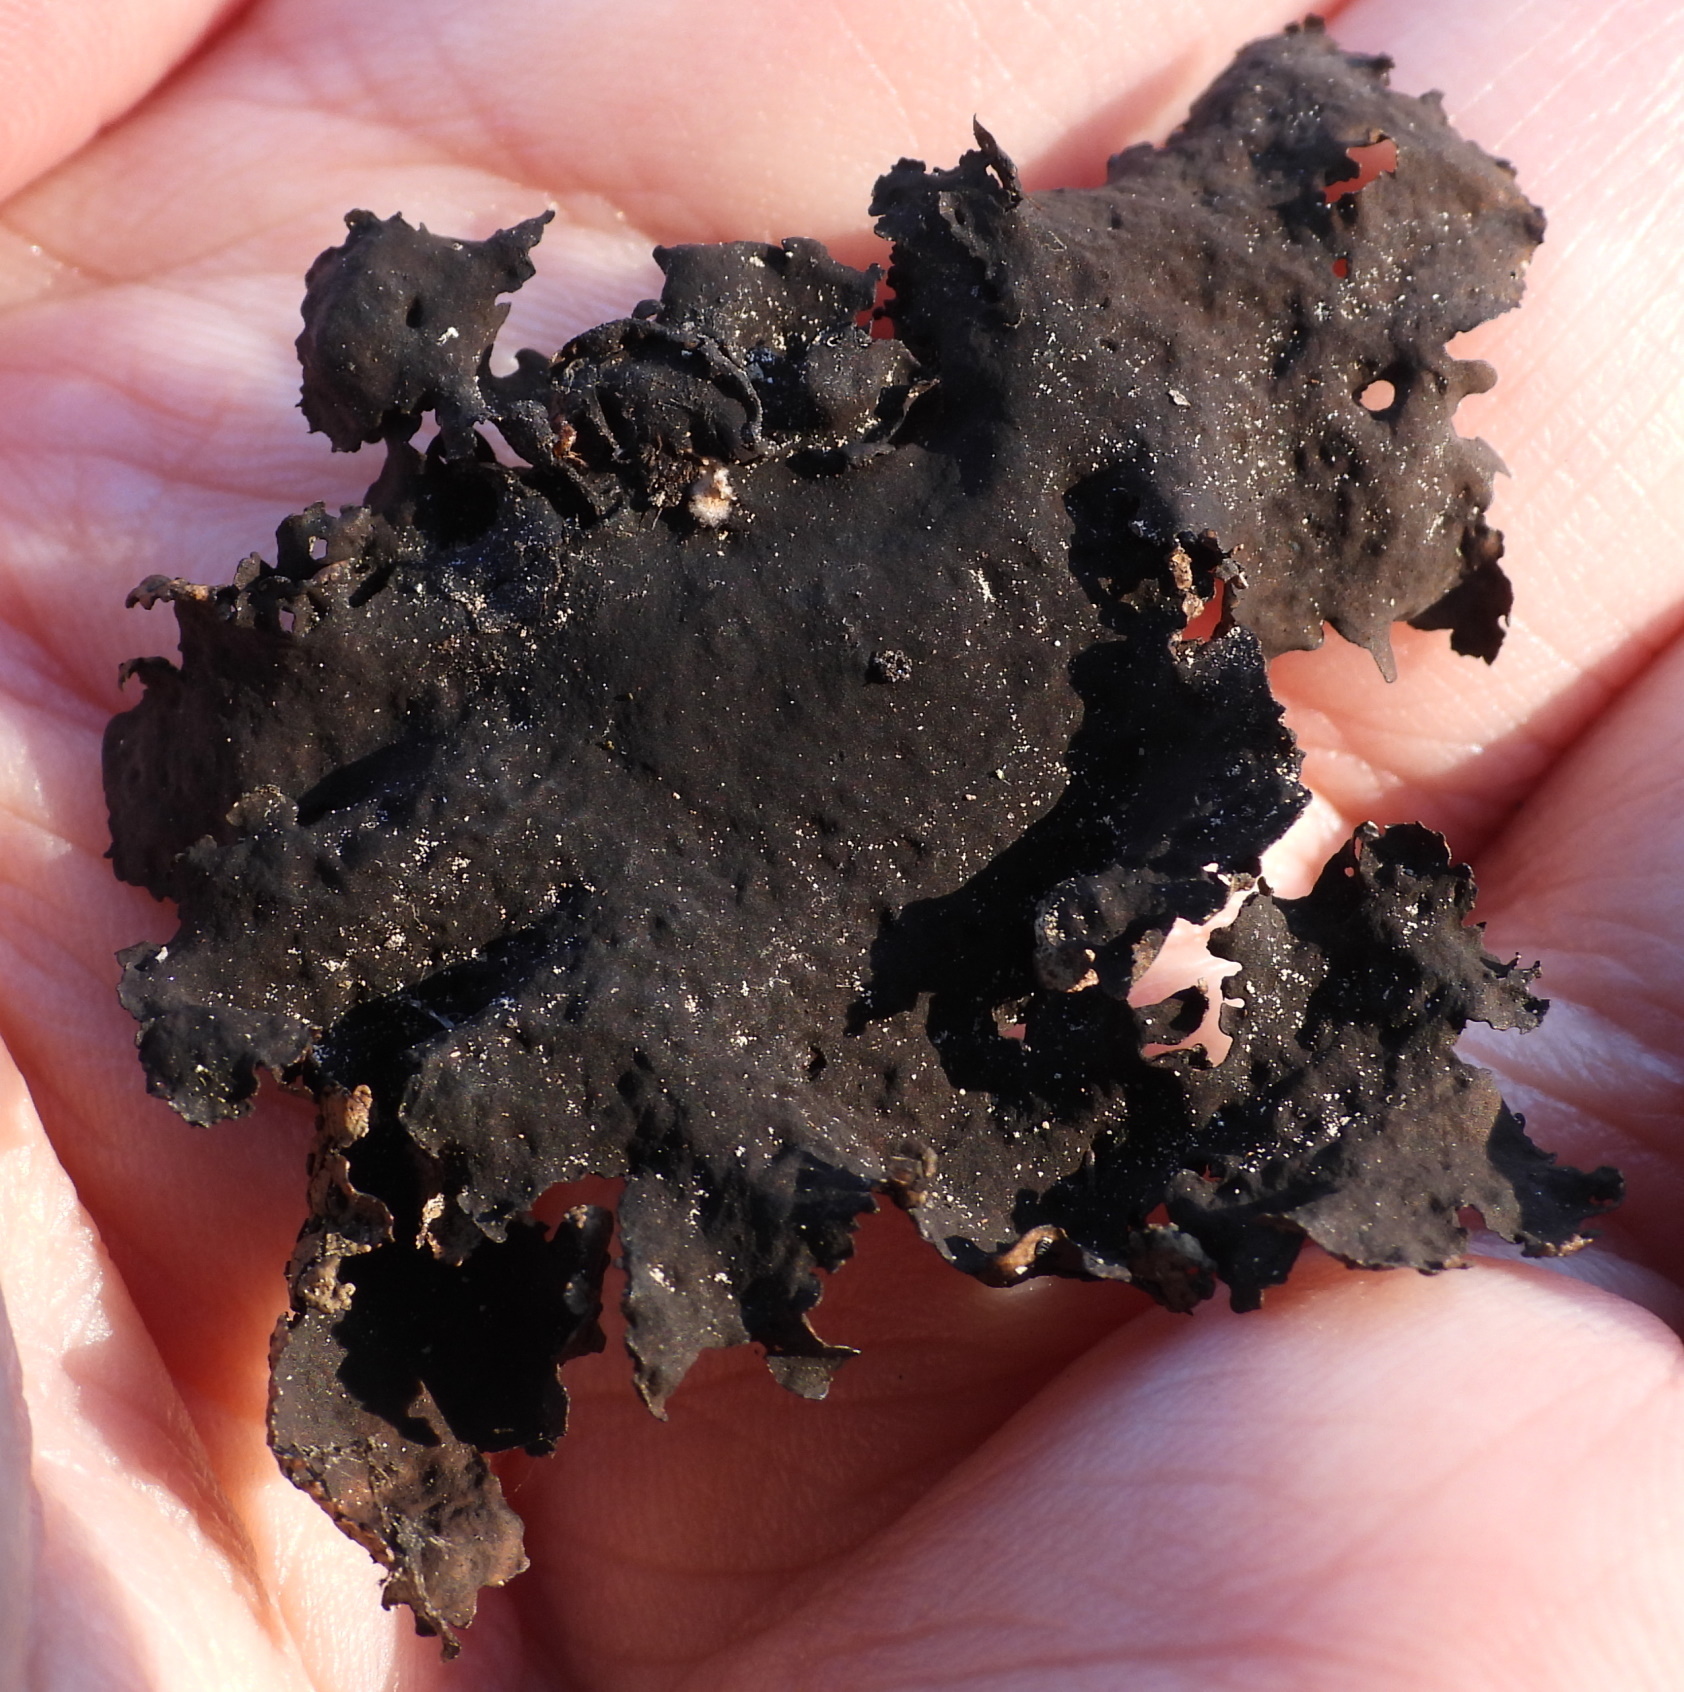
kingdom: Fungi
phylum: Ascomycota
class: Lecanoromycetes
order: Umbilicariales
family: Umbilicariaceae
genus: Umbilicaria
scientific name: Umbilicaria hyperborea
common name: Blistered rock tripe
